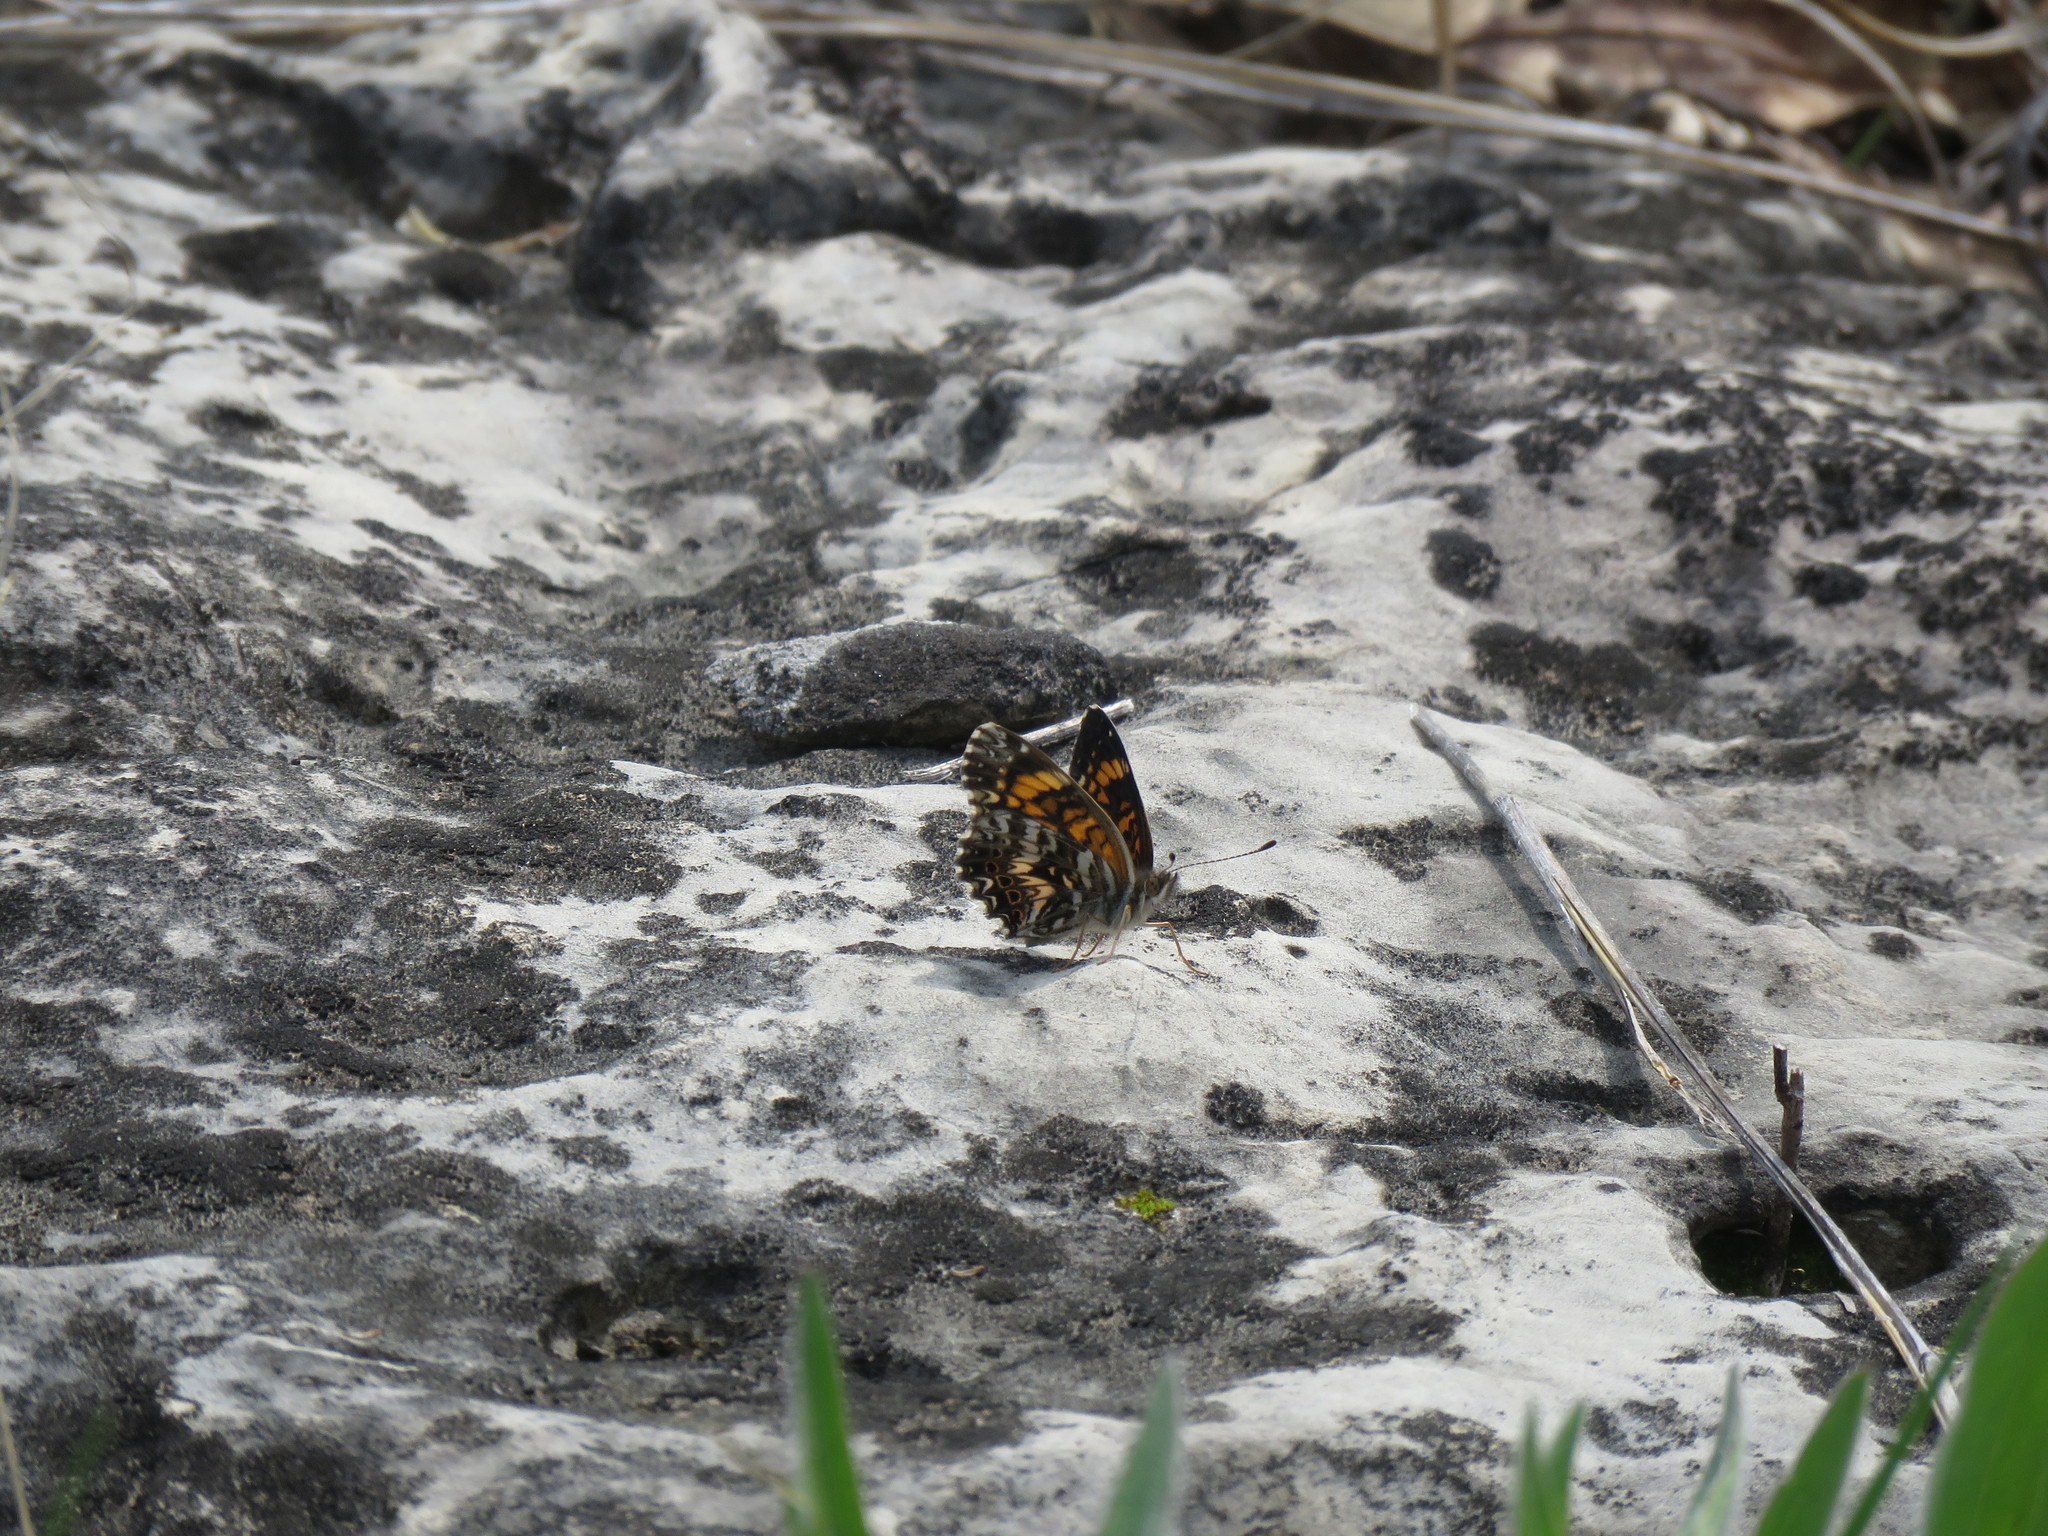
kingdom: Animalia
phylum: Arthropoda
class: Insecta
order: Lepidoptera
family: Nymphalidae
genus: Chlosyne
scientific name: Chlosyne gorgone
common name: Gorgone checkerspot
